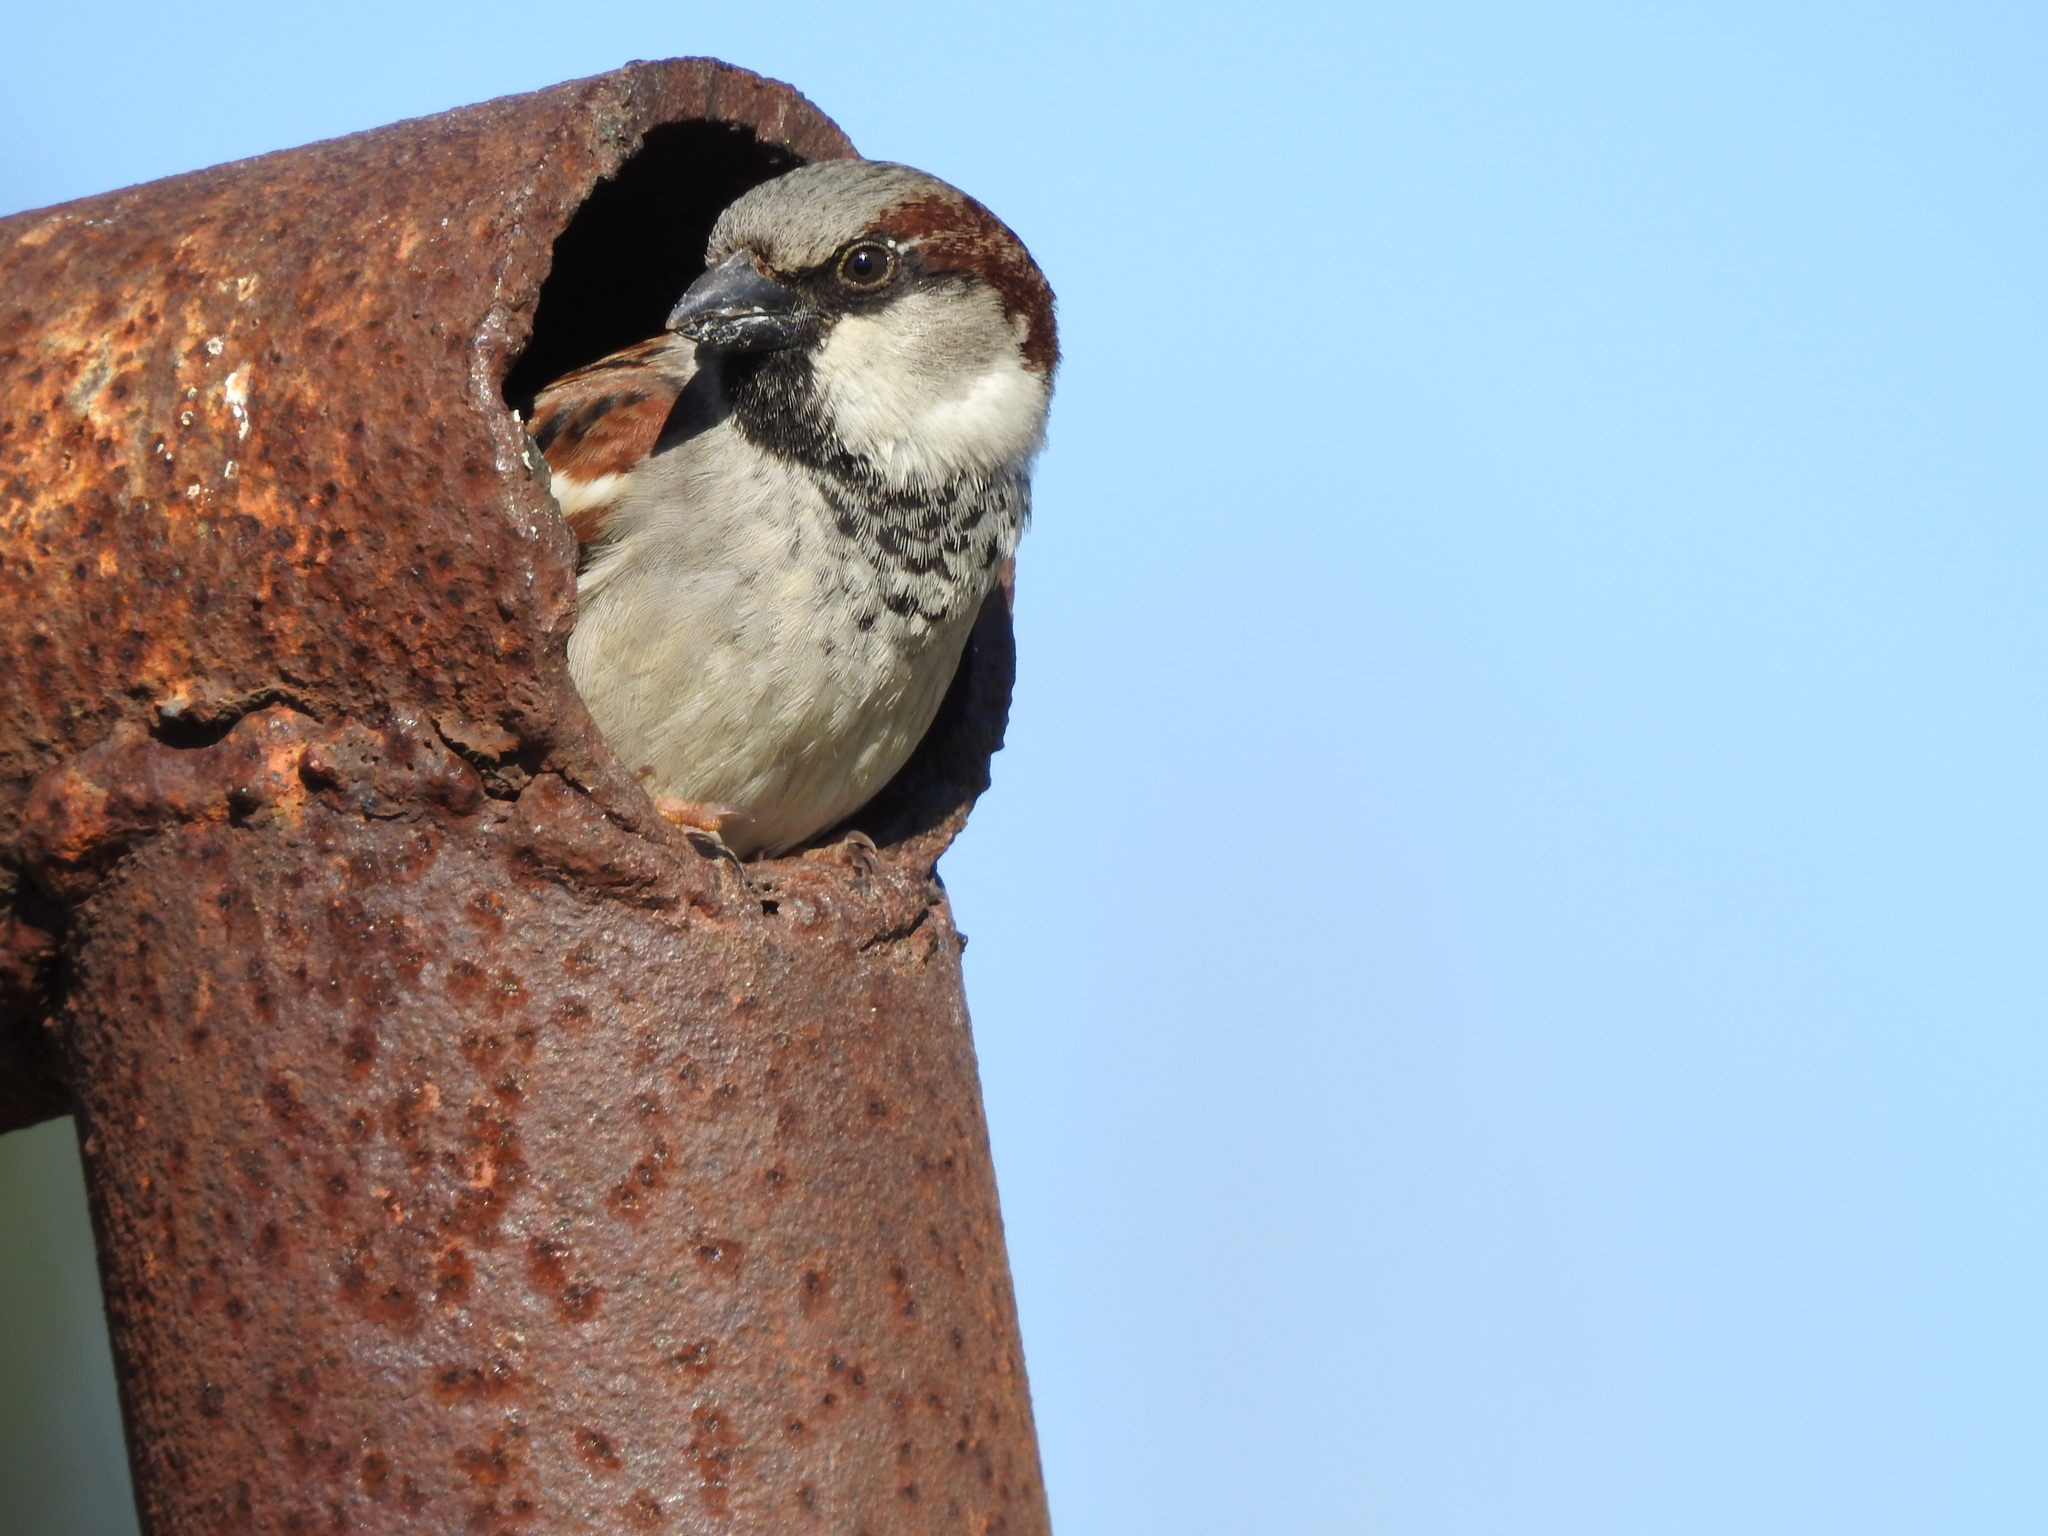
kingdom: Animalia
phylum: Chordata
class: Aves
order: Passeriformes
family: Passeridae
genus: Passer
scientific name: Passer domesticus
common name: House sparrow
